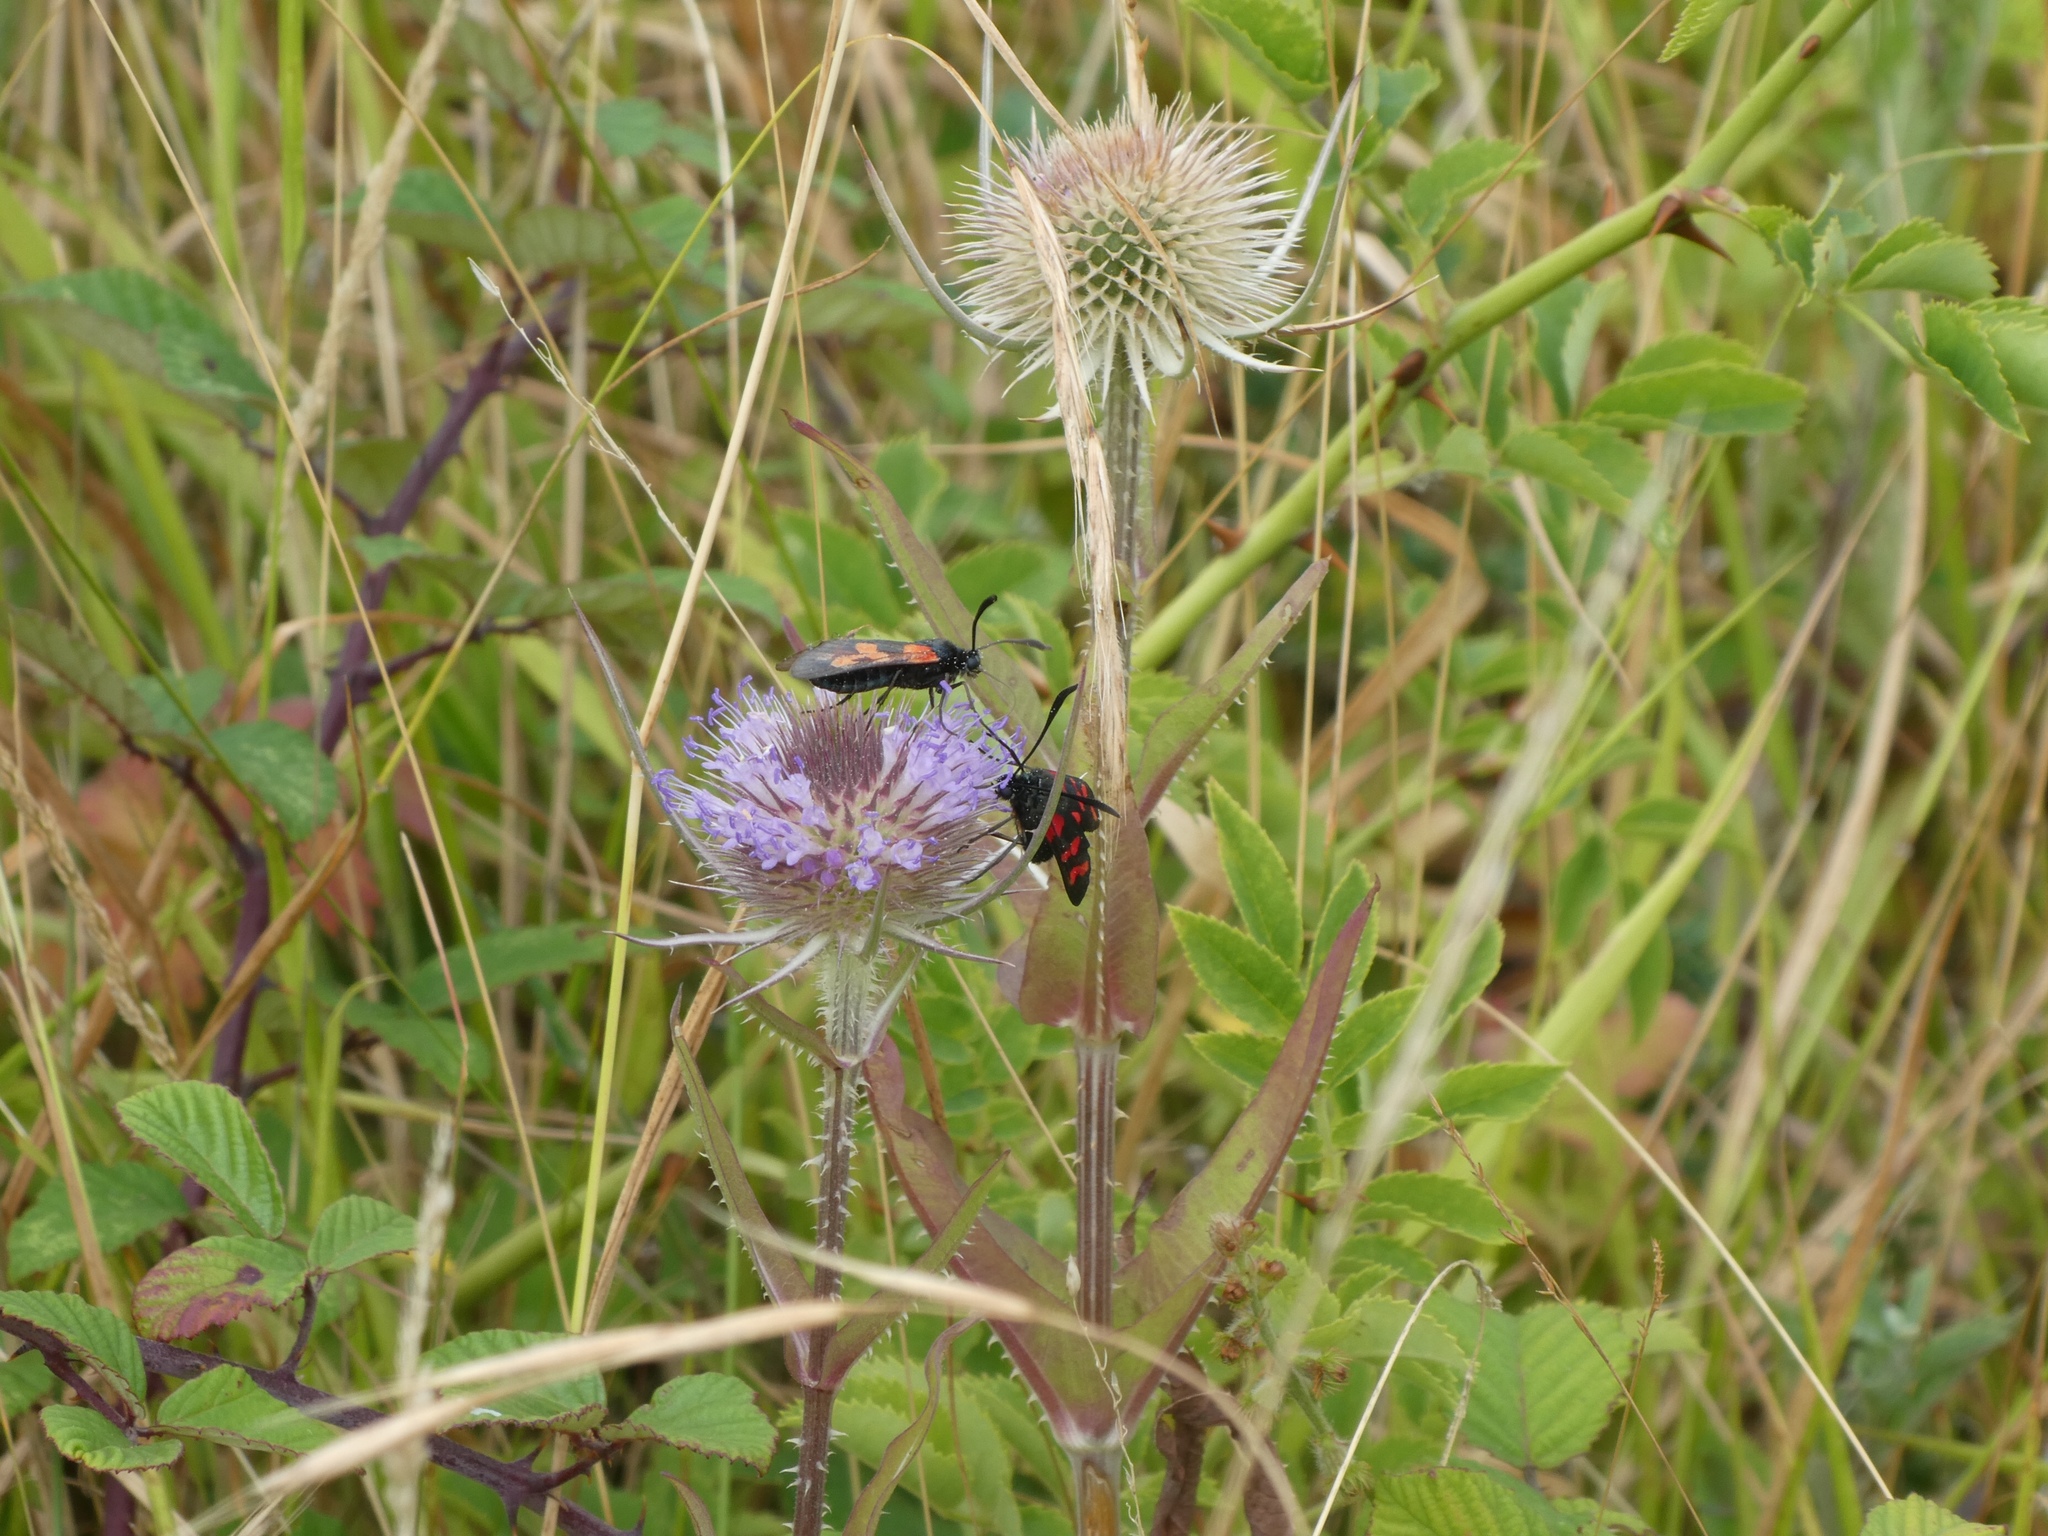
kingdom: Animalia
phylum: Arthropoda
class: Insecta
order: Lepidoptera
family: Zygaenidae
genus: Zygaena
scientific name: Zygaena filipendulae
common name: Six-spot burnet
